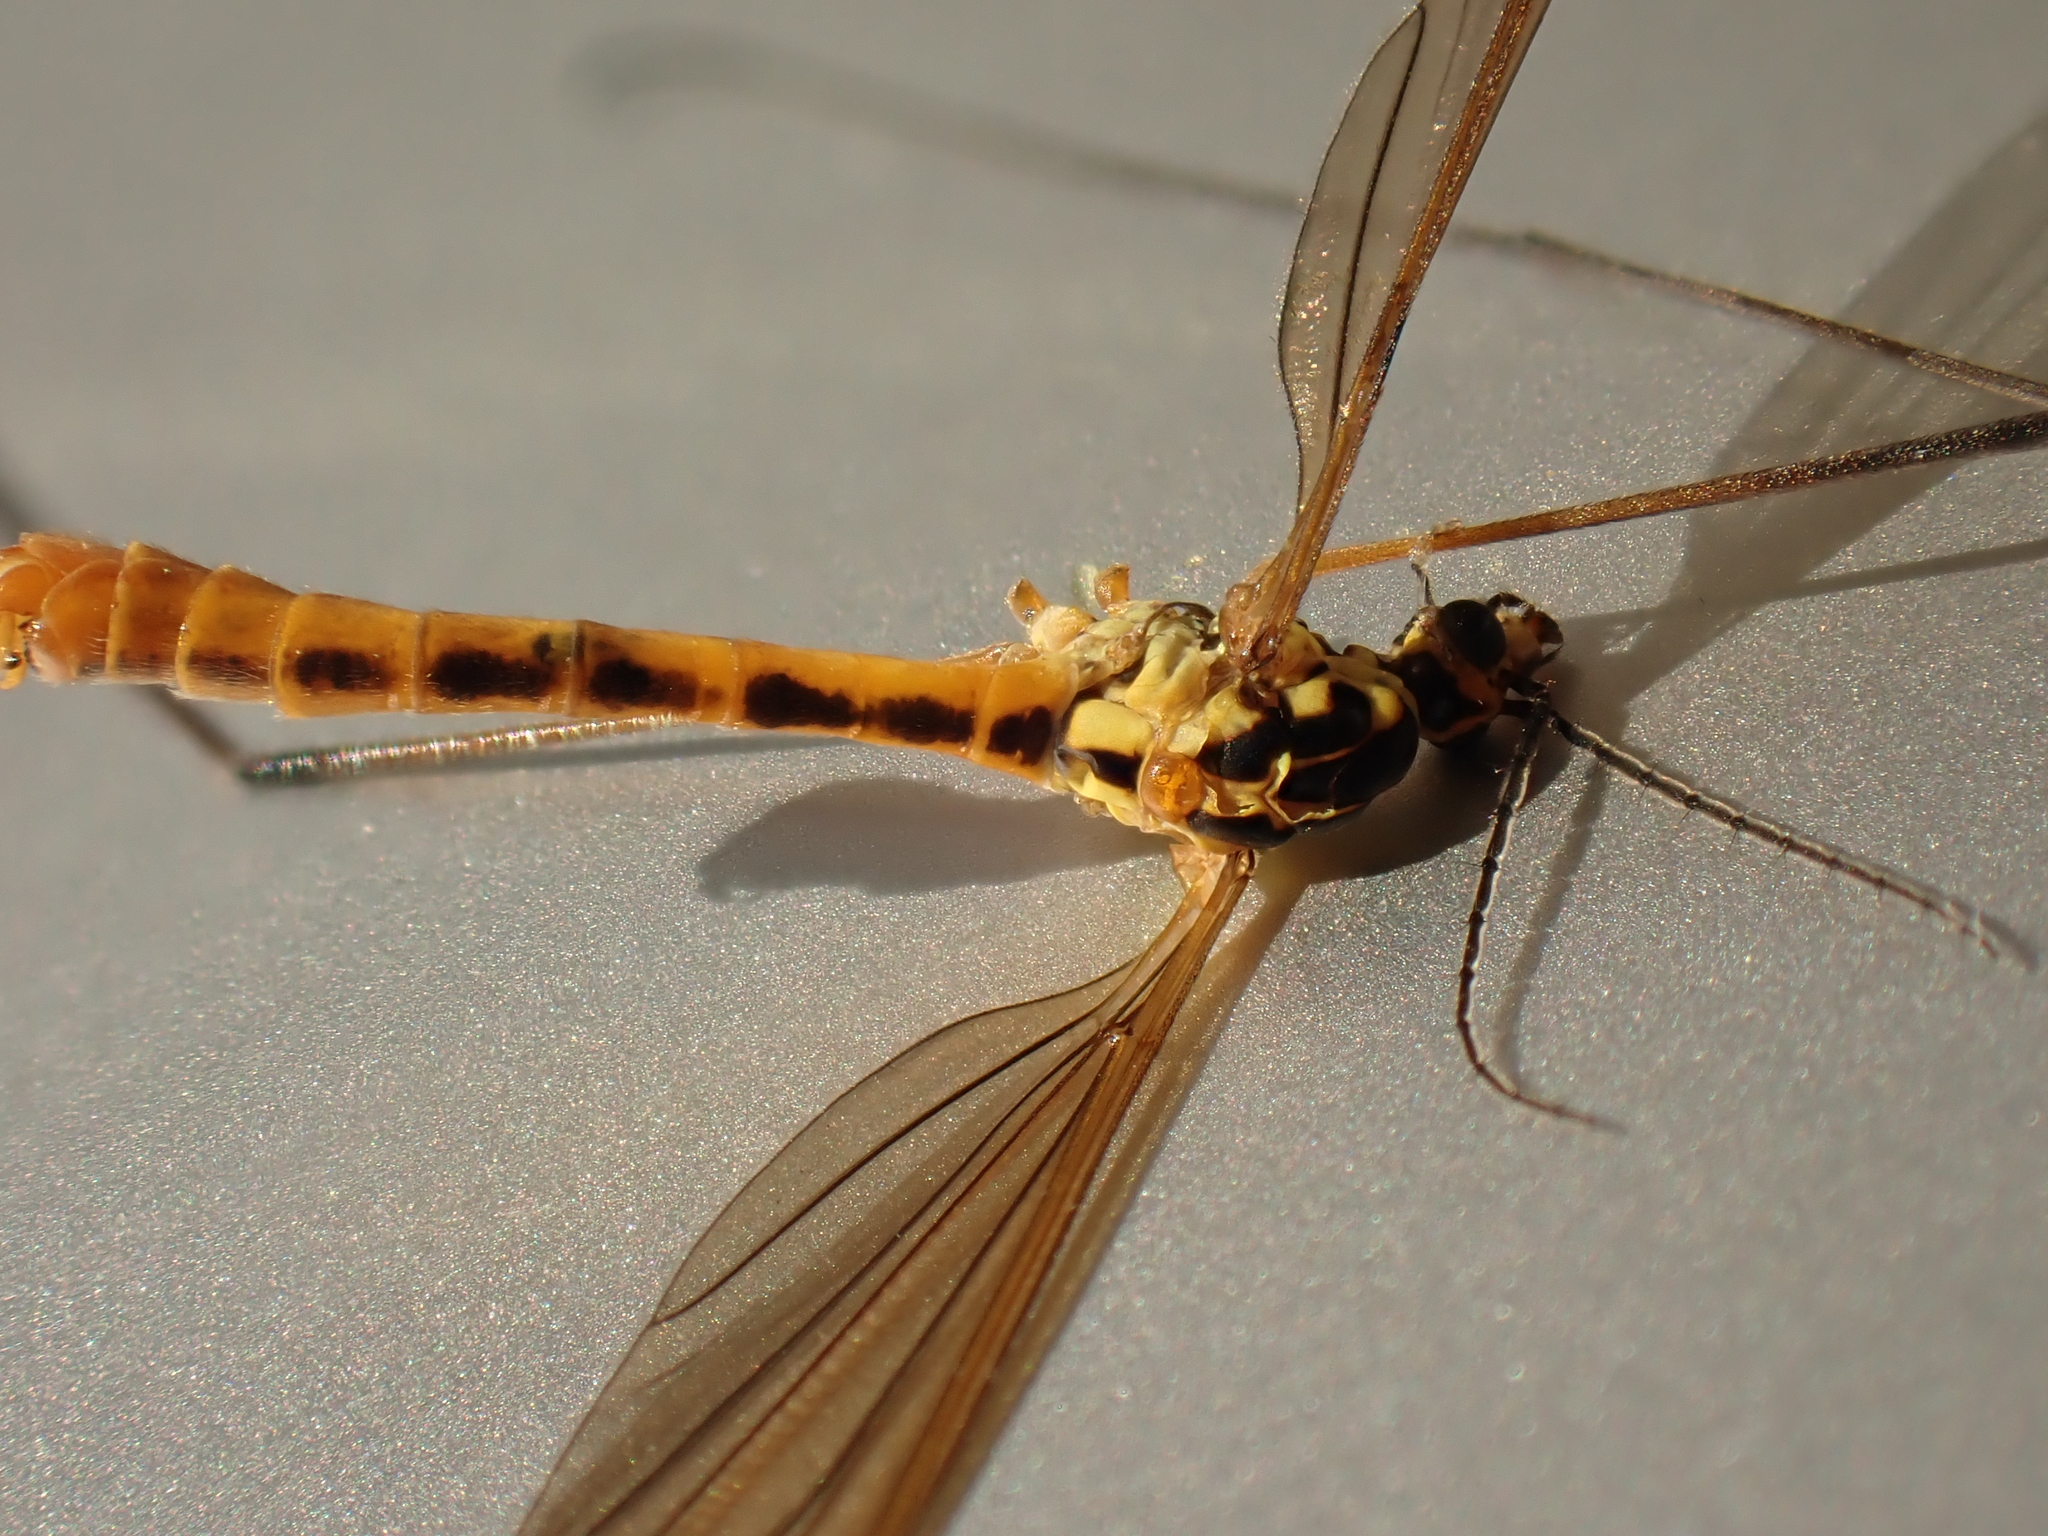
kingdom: Animalia
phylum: Arthropoda
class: Insecta
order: Diptera
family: Tipulidae
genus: Nephrotoma
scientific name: Nephrotoma flavescens
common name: Tiger cranefly
